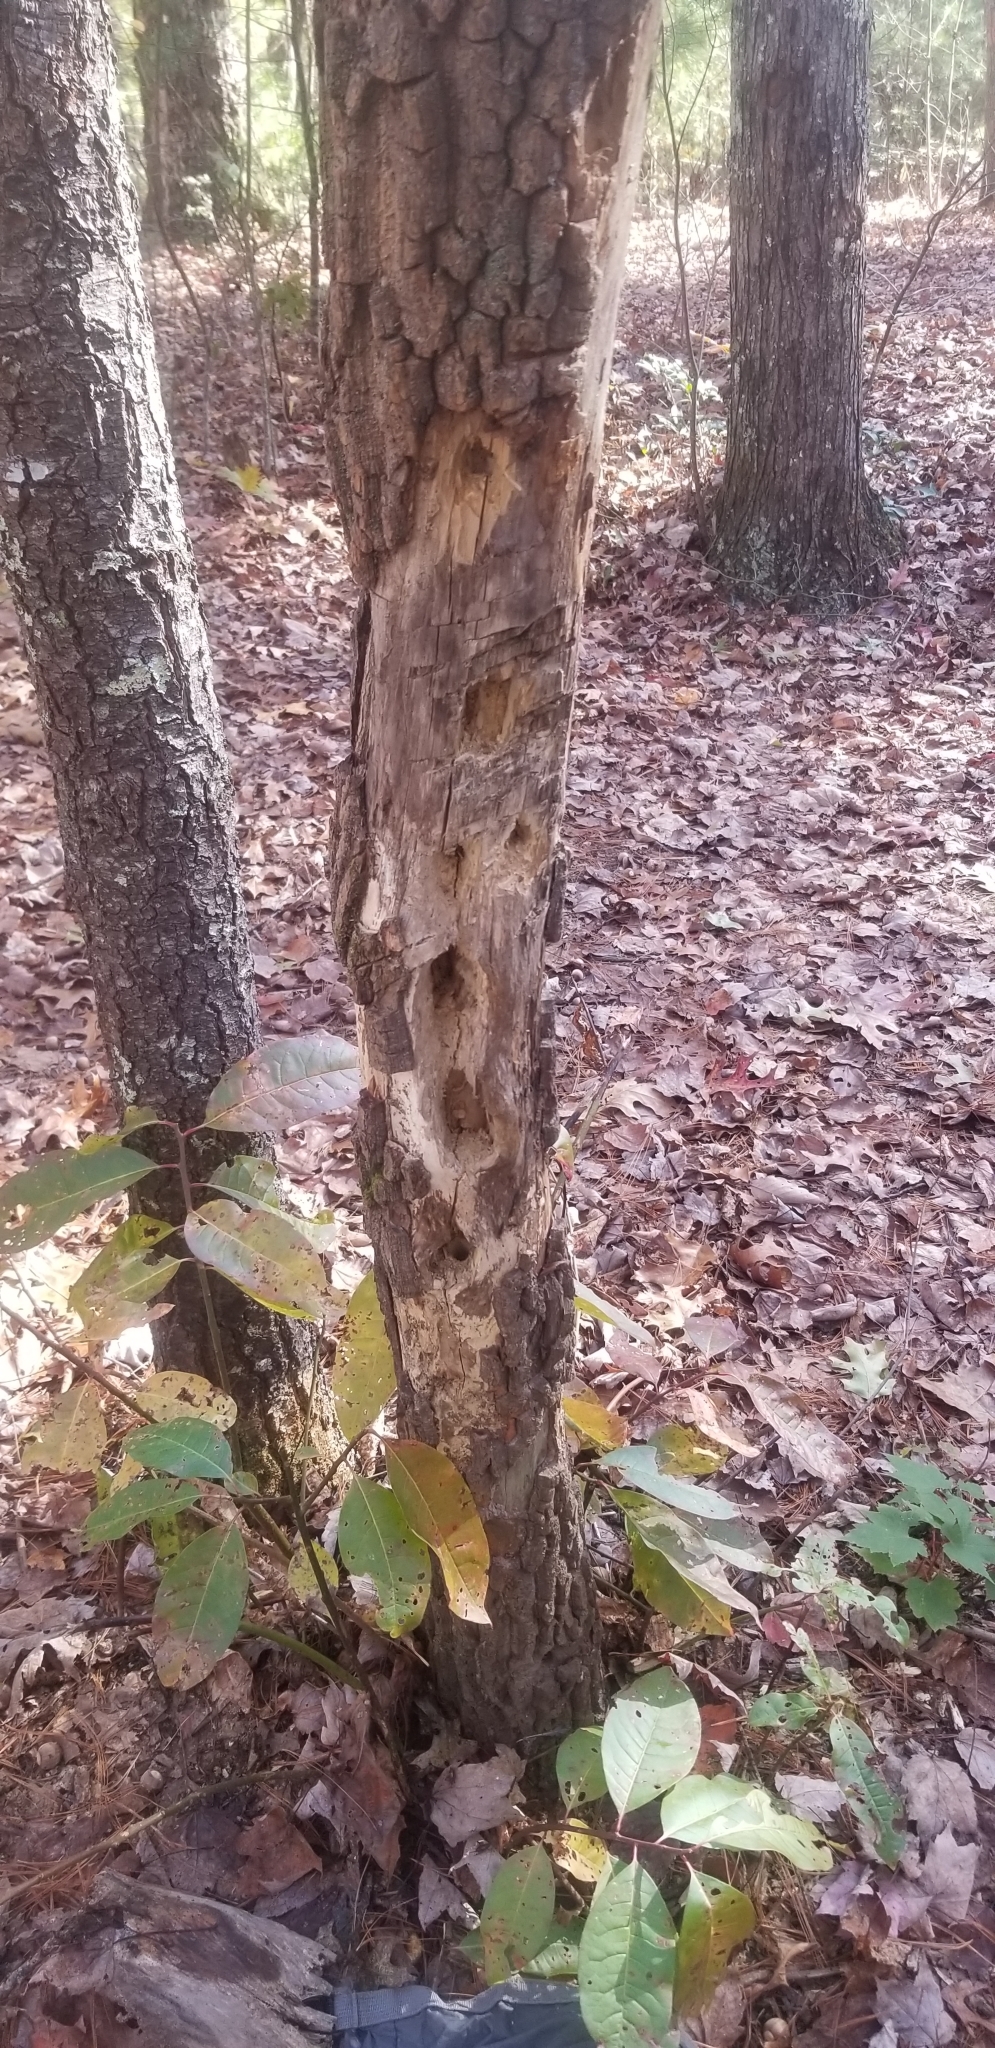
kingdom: Animalia
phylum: Chordata
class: Aves
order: Piciformes
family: Picidae
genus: Dryocopus
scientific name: Dryocopus pileatus
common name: Pileated woodpecker
